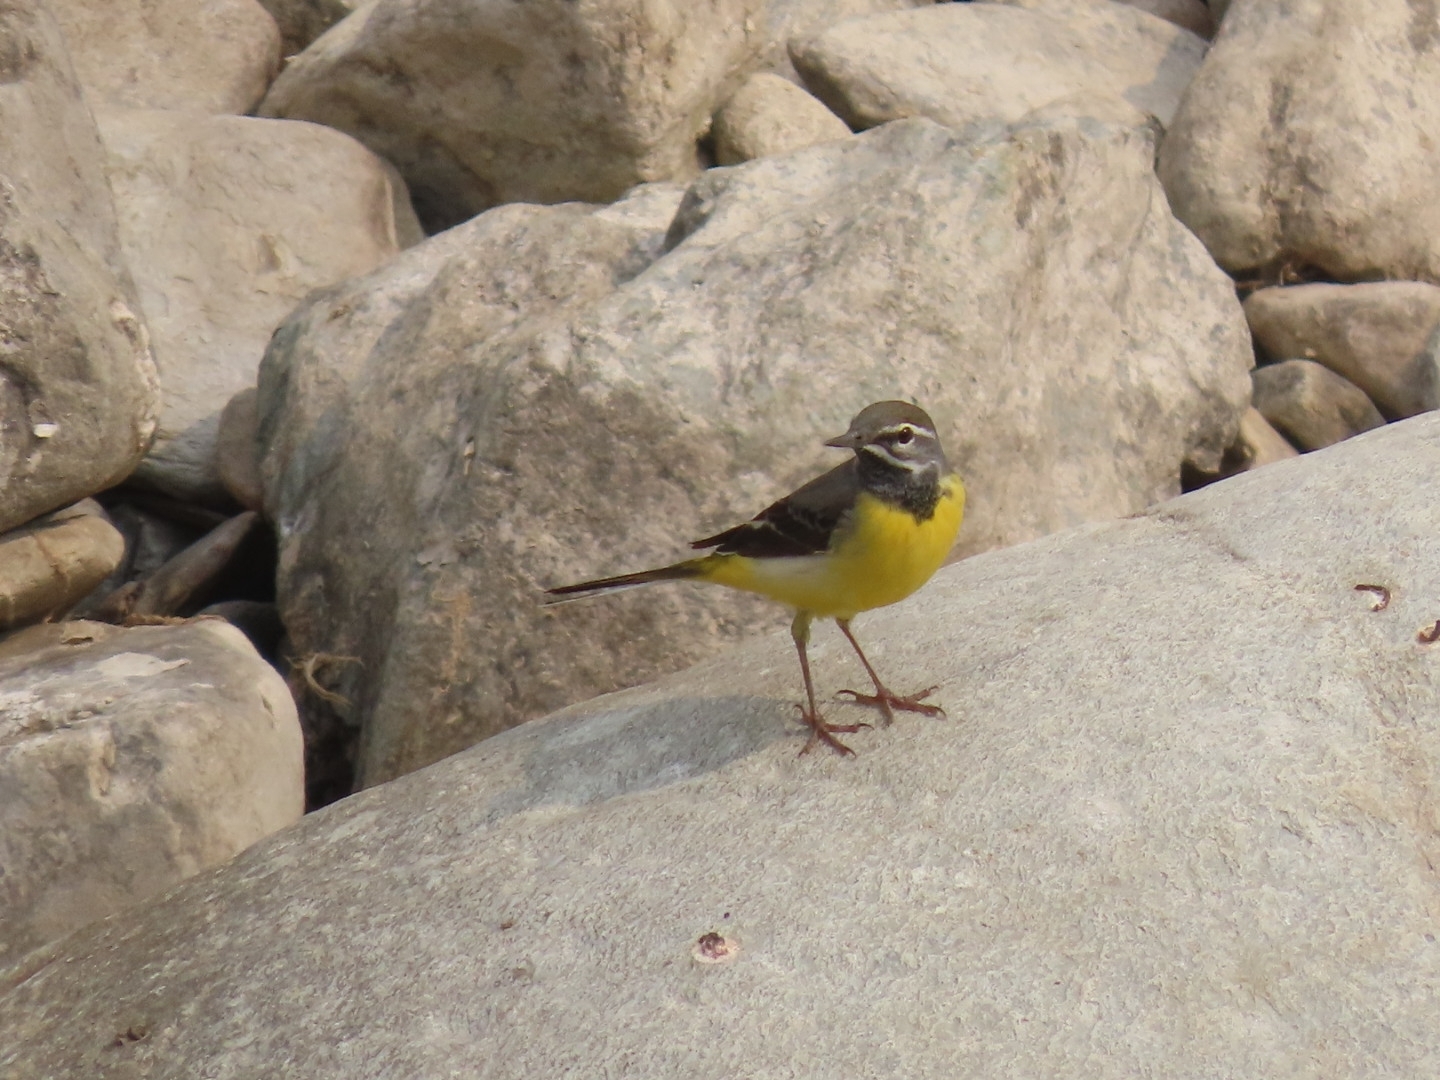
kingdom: Animalia
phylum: Chordata
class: Aves
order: Passeriformes
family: Motacillidae
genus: Motacilla
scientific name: Motacilla cinerea
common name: Grey wagtail
